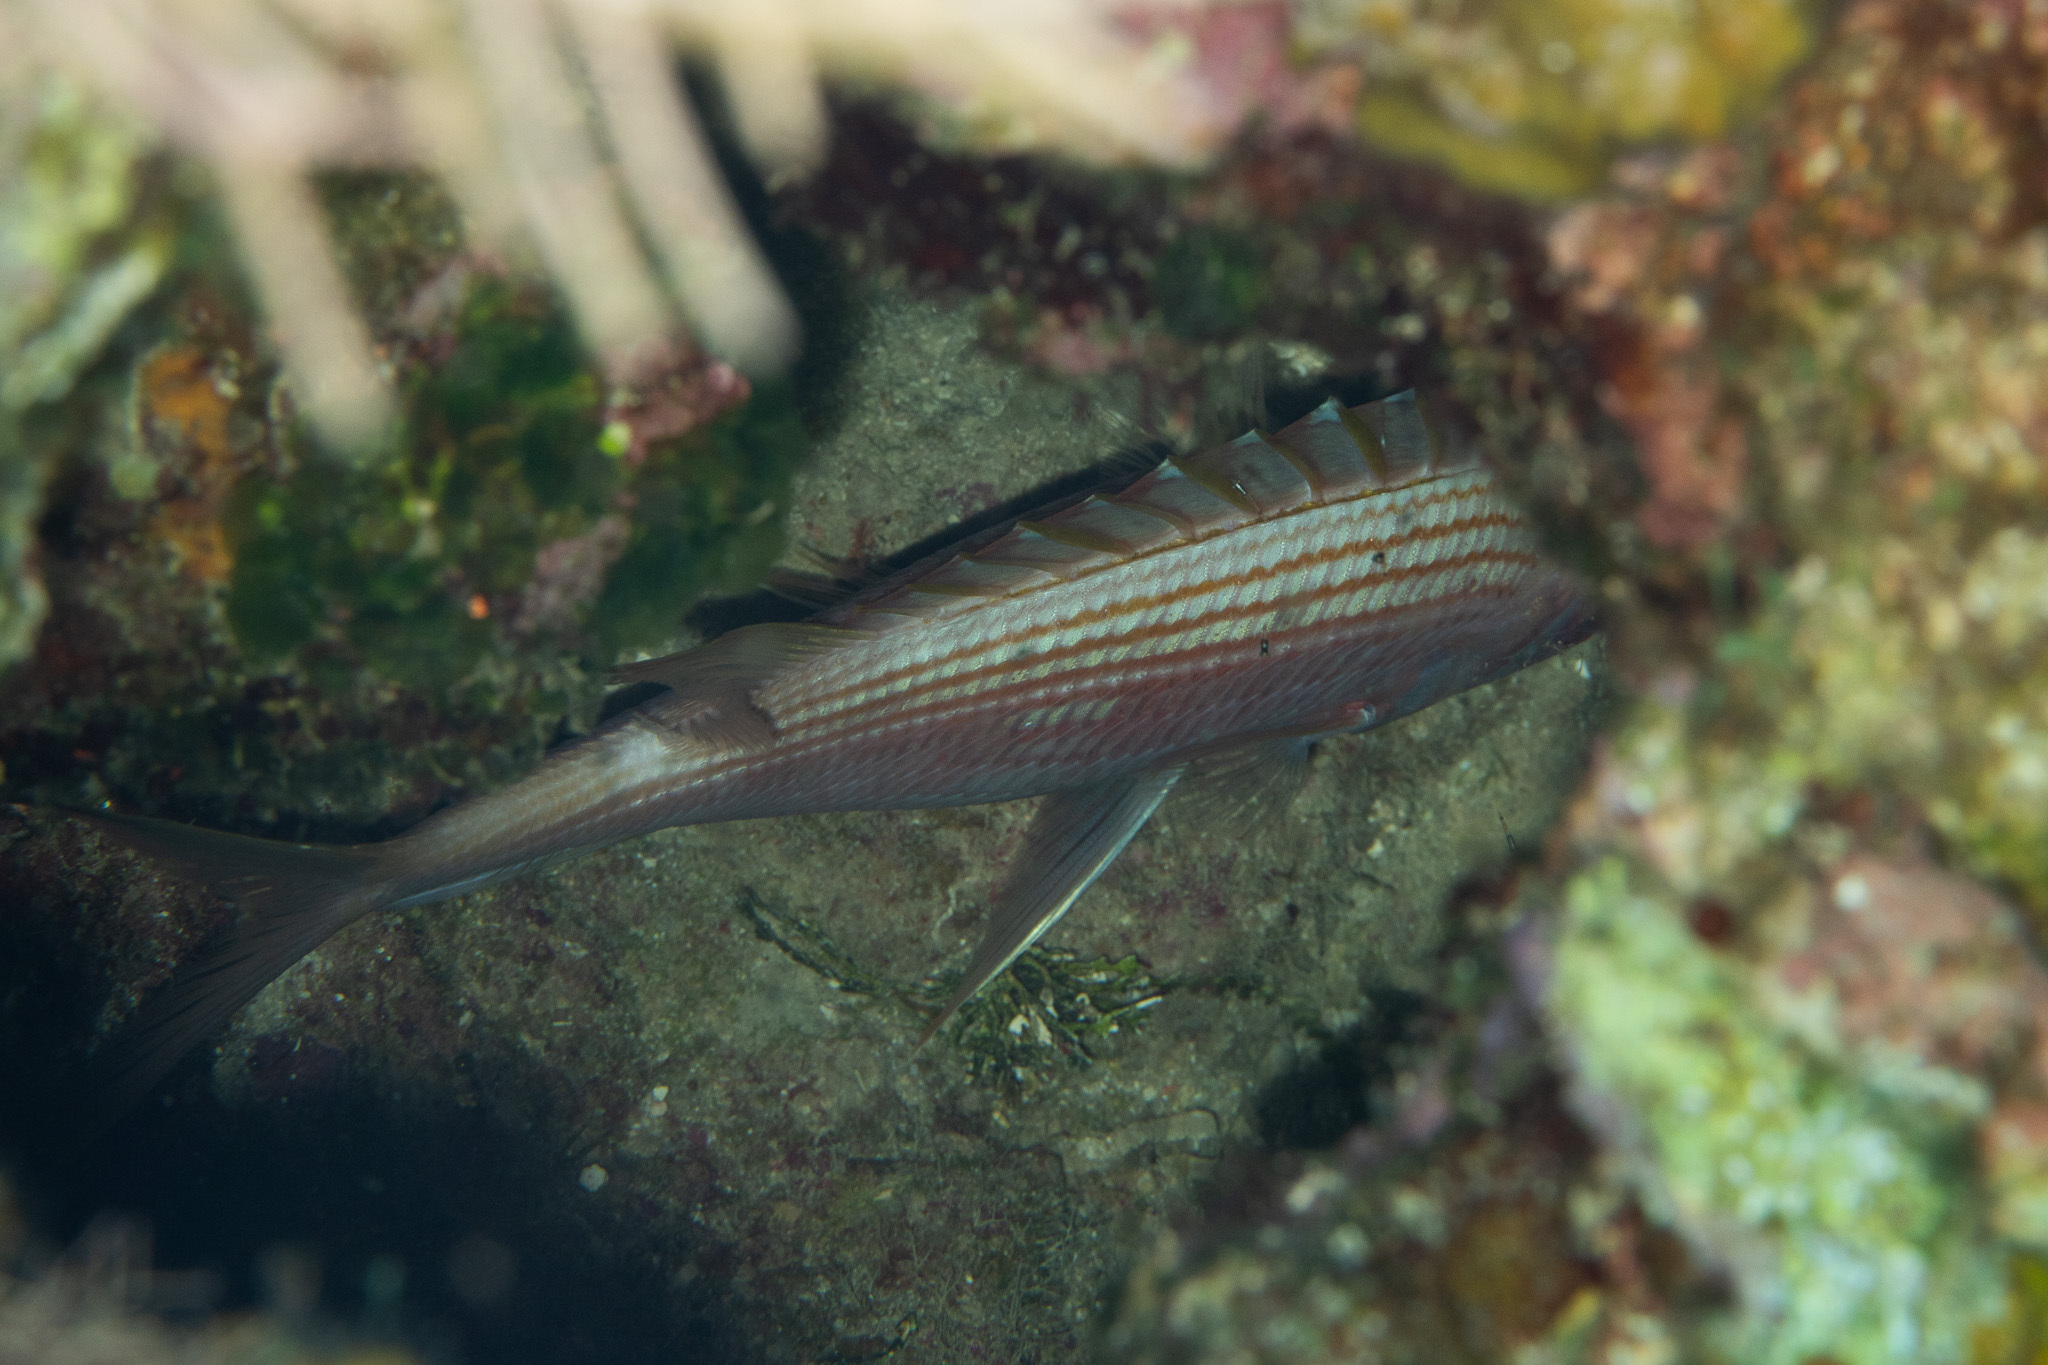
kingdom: Animalia
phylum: Chordata
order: Beryciformes
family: Holocentridae
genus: Holocentrus
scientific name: Holocentrus rufus
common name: Longspine squirrelfish
